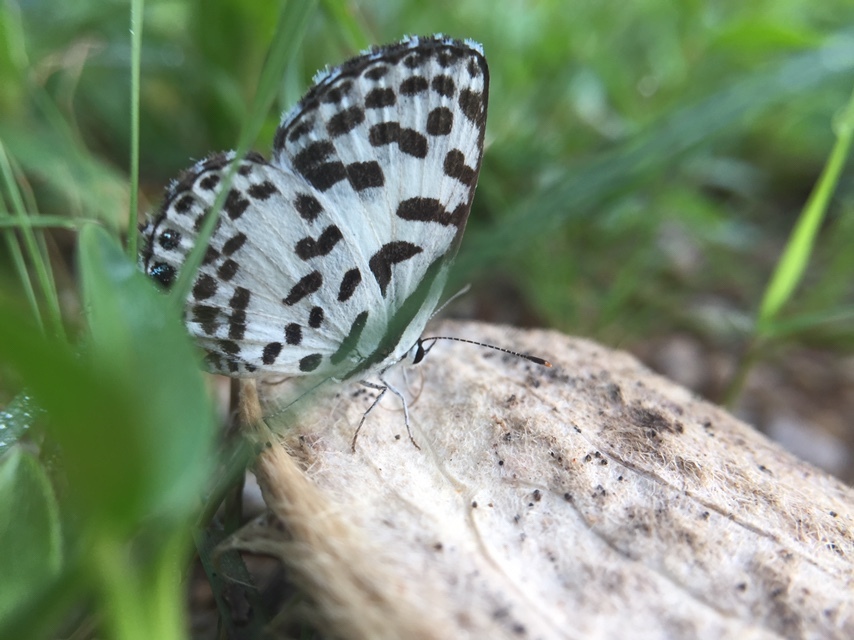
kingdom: Animalia
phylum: Arthropoda
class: Insecta
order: Lepidoptera
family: Lycaenidae
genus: Castalius
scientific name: Castalius rosimon
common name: Common pierrot
